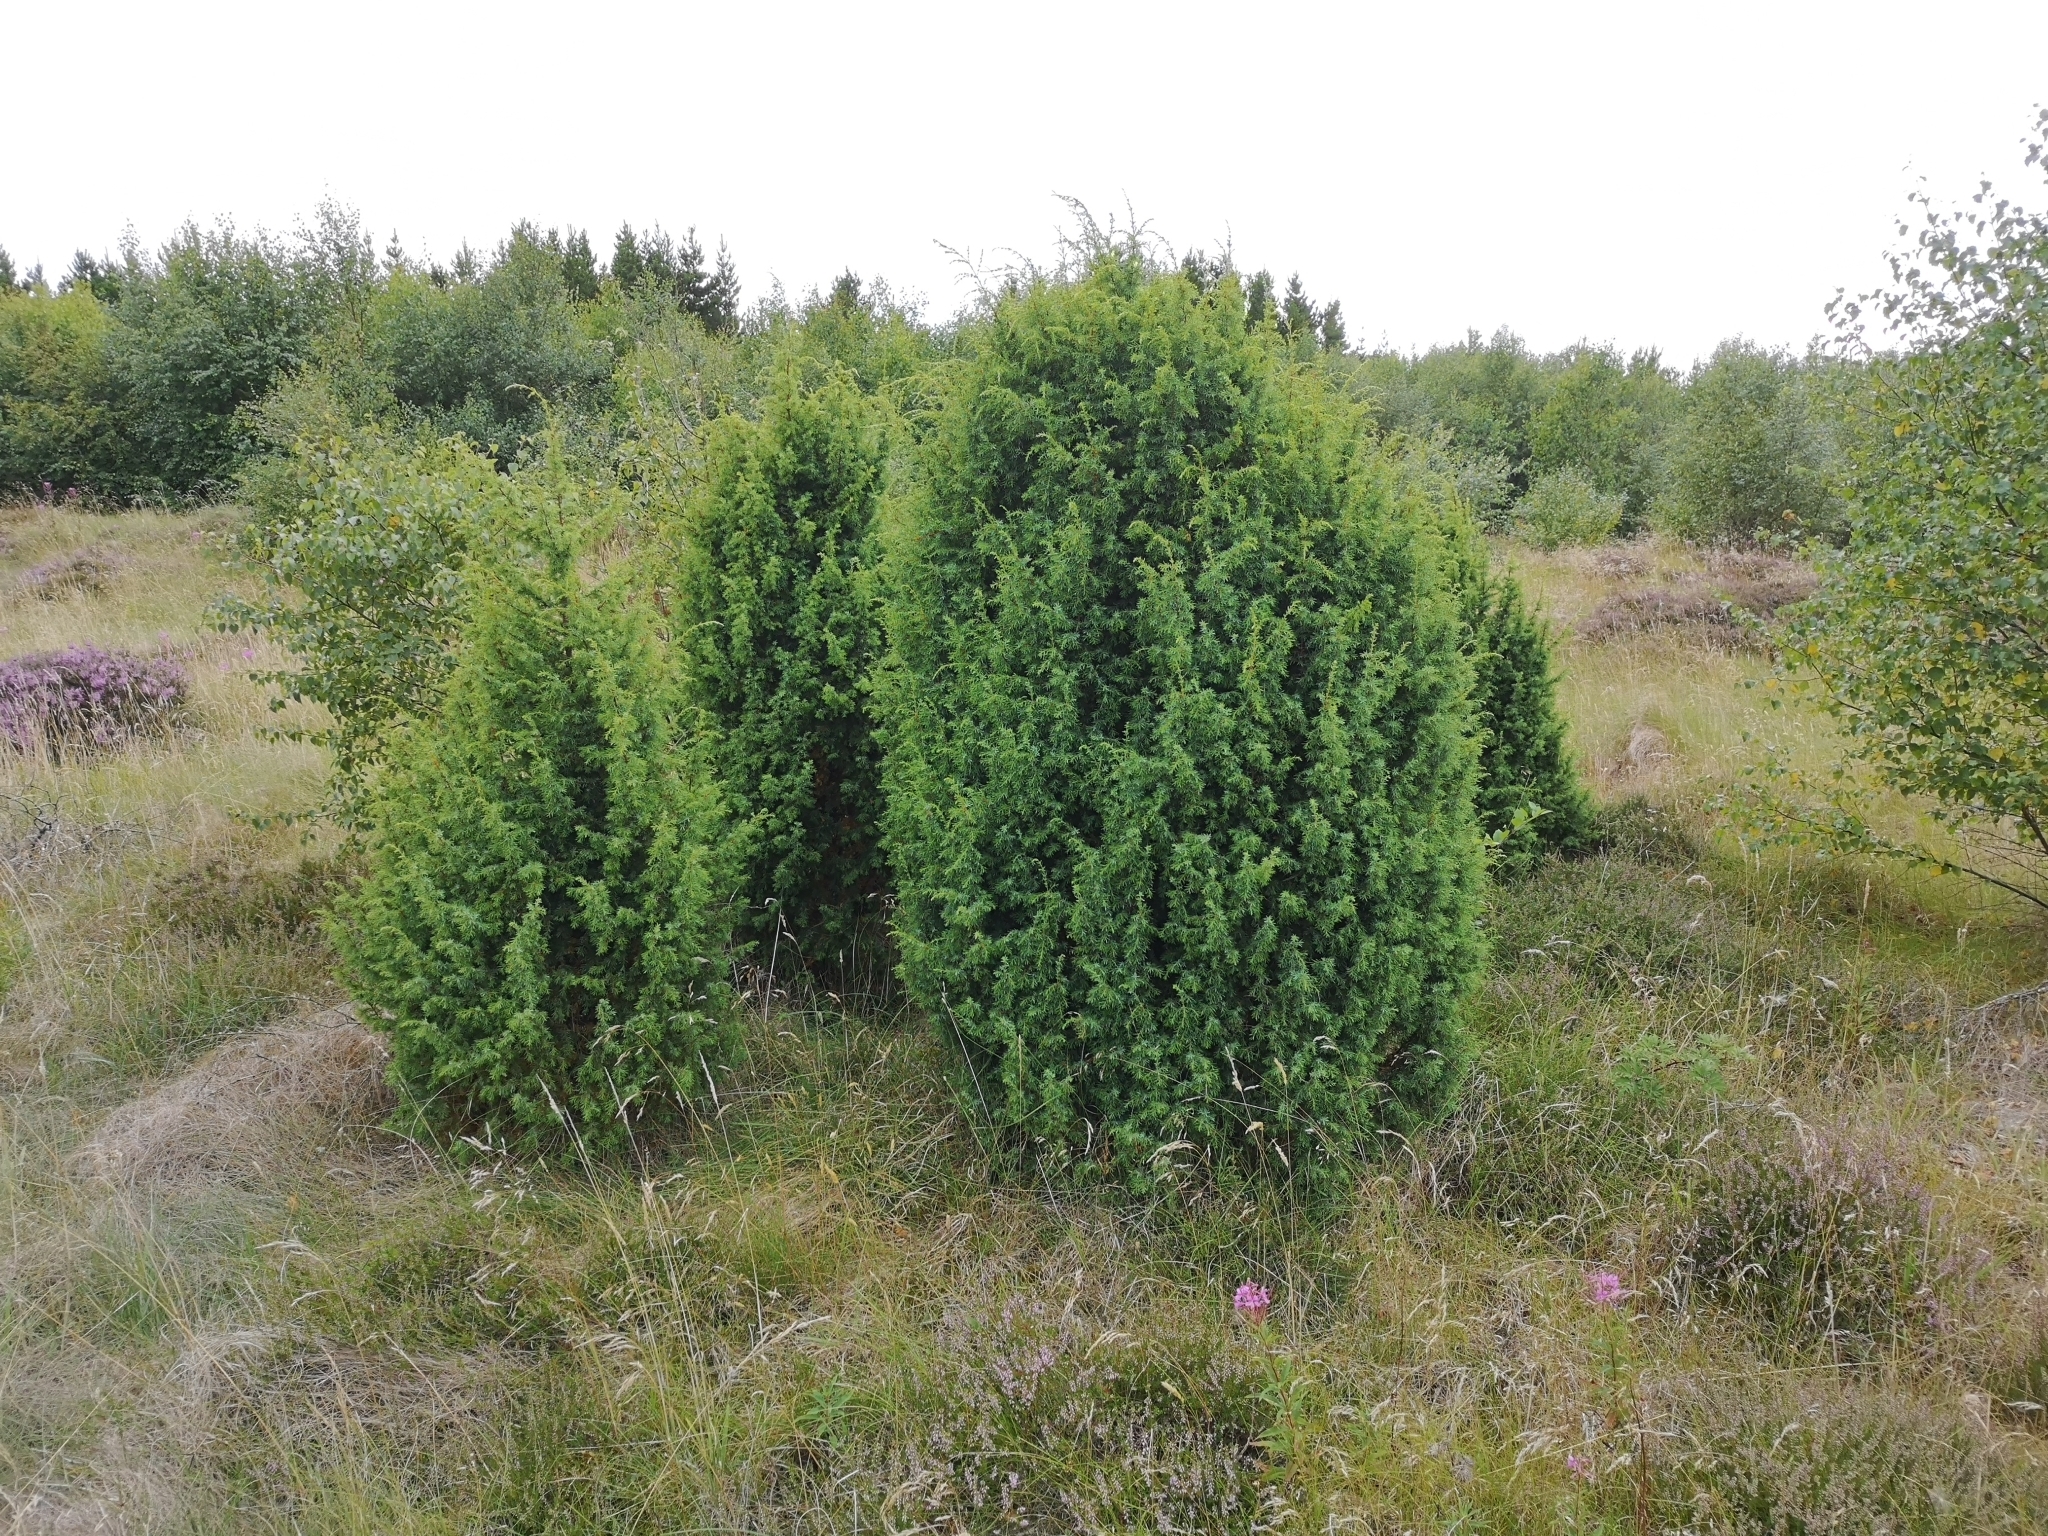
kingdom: Plantae
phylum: Tracheophyta
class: Pinopsida
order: Pinales
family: Cupressaceae
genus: Juniperus
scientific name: Juniperus communis
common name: Common juniper
